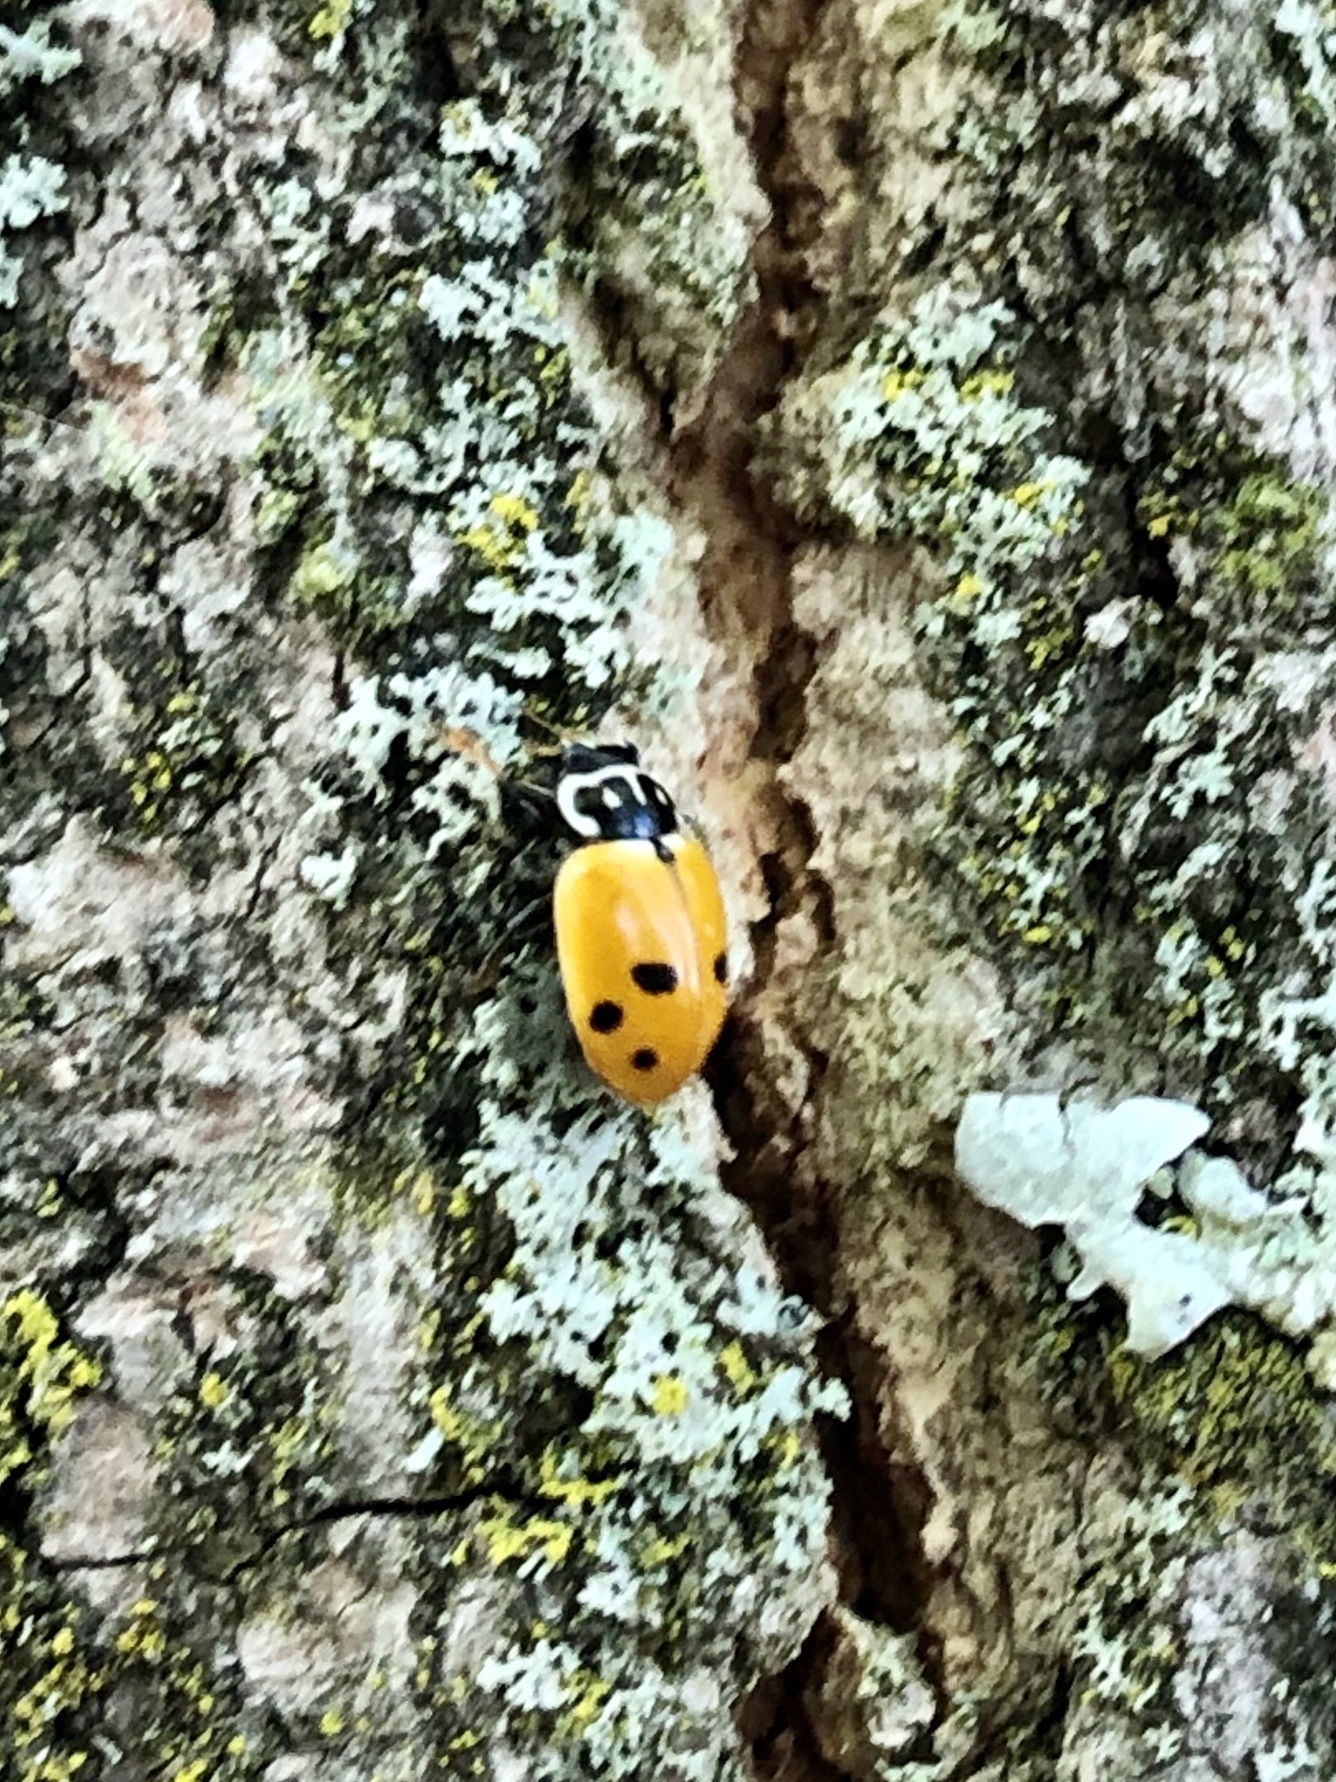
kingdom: Animalia
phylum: Arthropoda
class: Insecta
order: Coleoptera
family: Coccinellidae
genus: Hippodamia
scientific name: Hippodamia variegata
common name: Ladybird beetle
